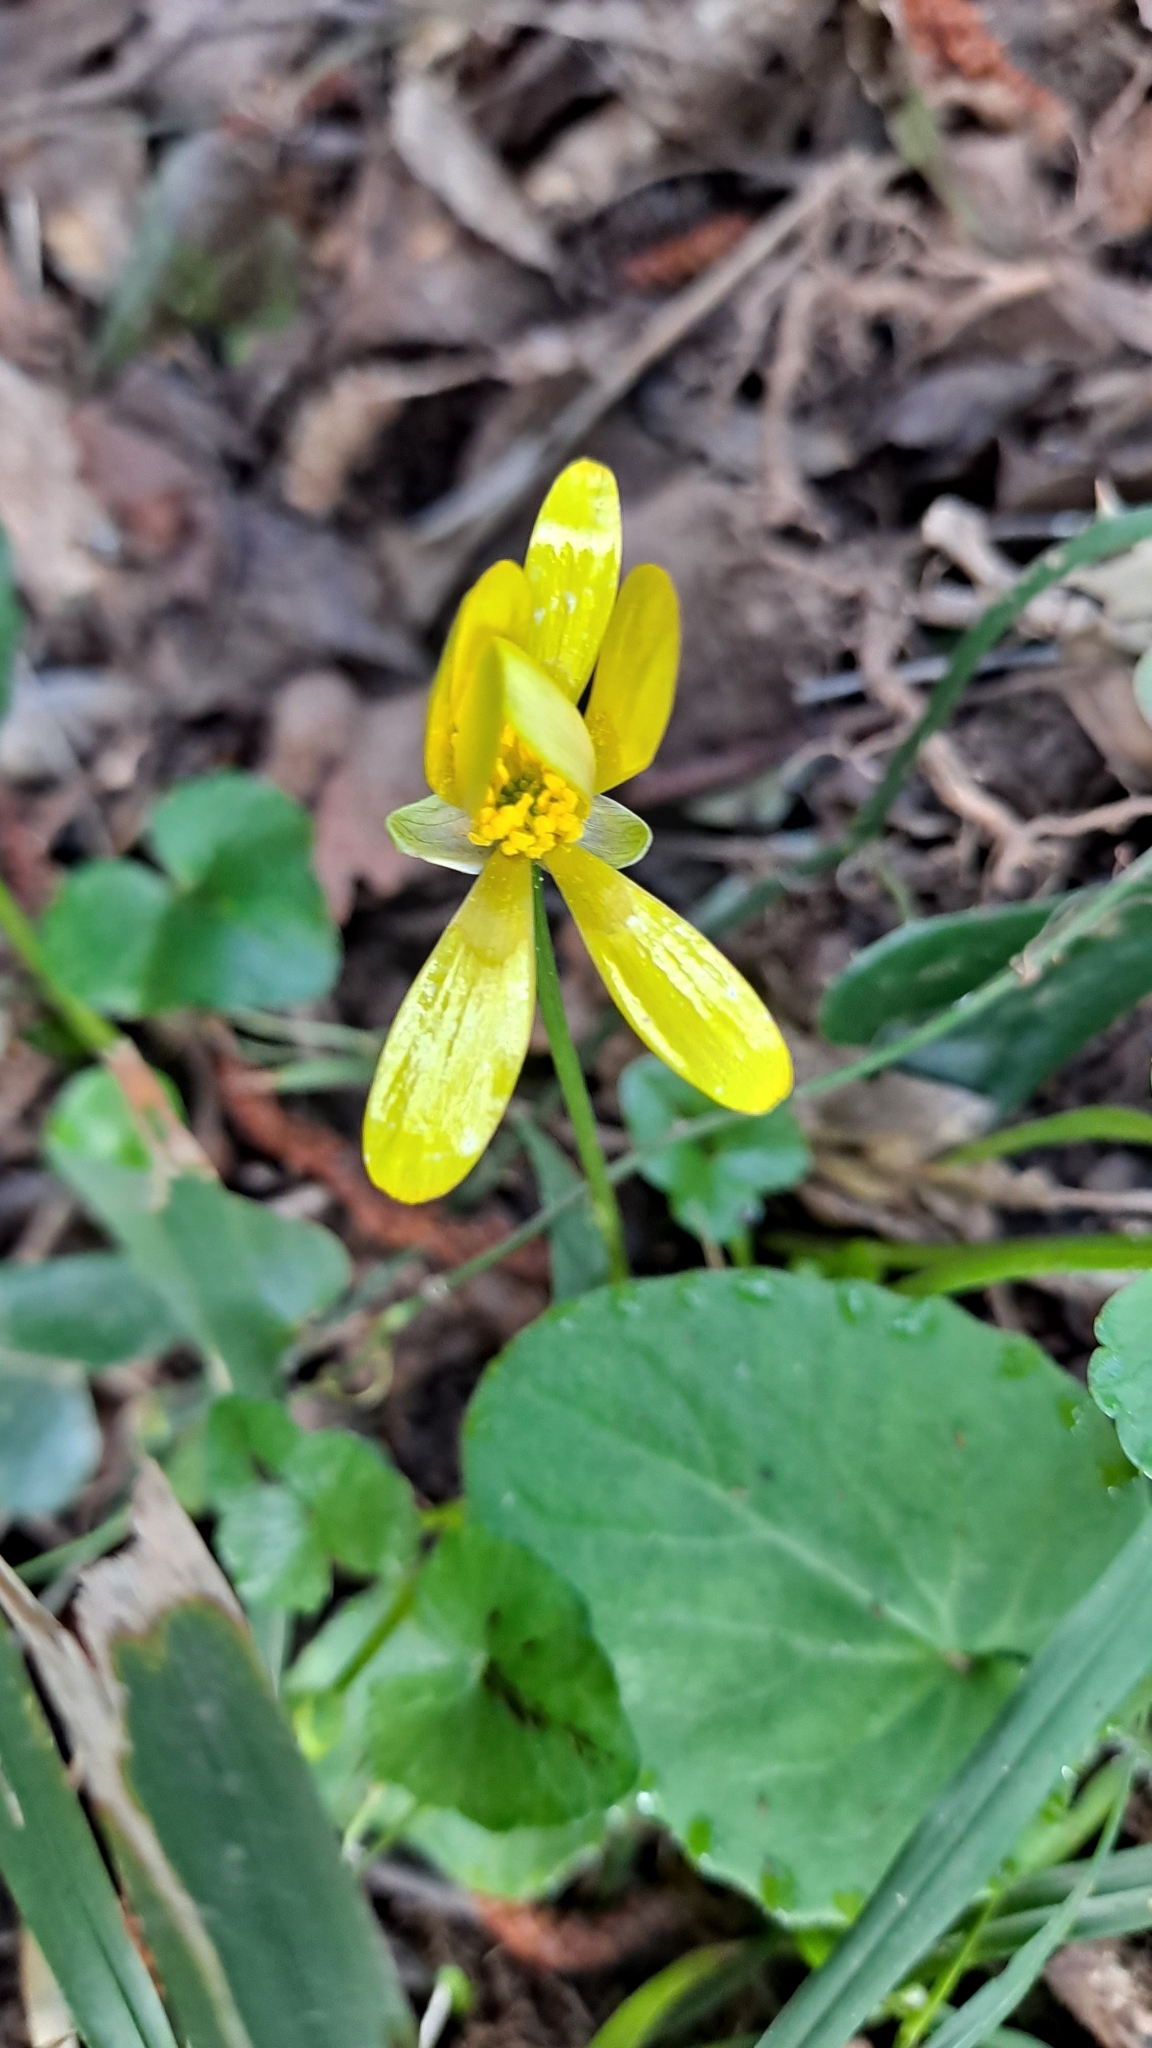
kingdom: Plantae
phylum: Tracheophyta
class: Magnoliopsida
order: Ranunculales
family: Ranunculaceae
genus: Ficaria
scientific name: Ficaria verna
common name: Lesser celandine
